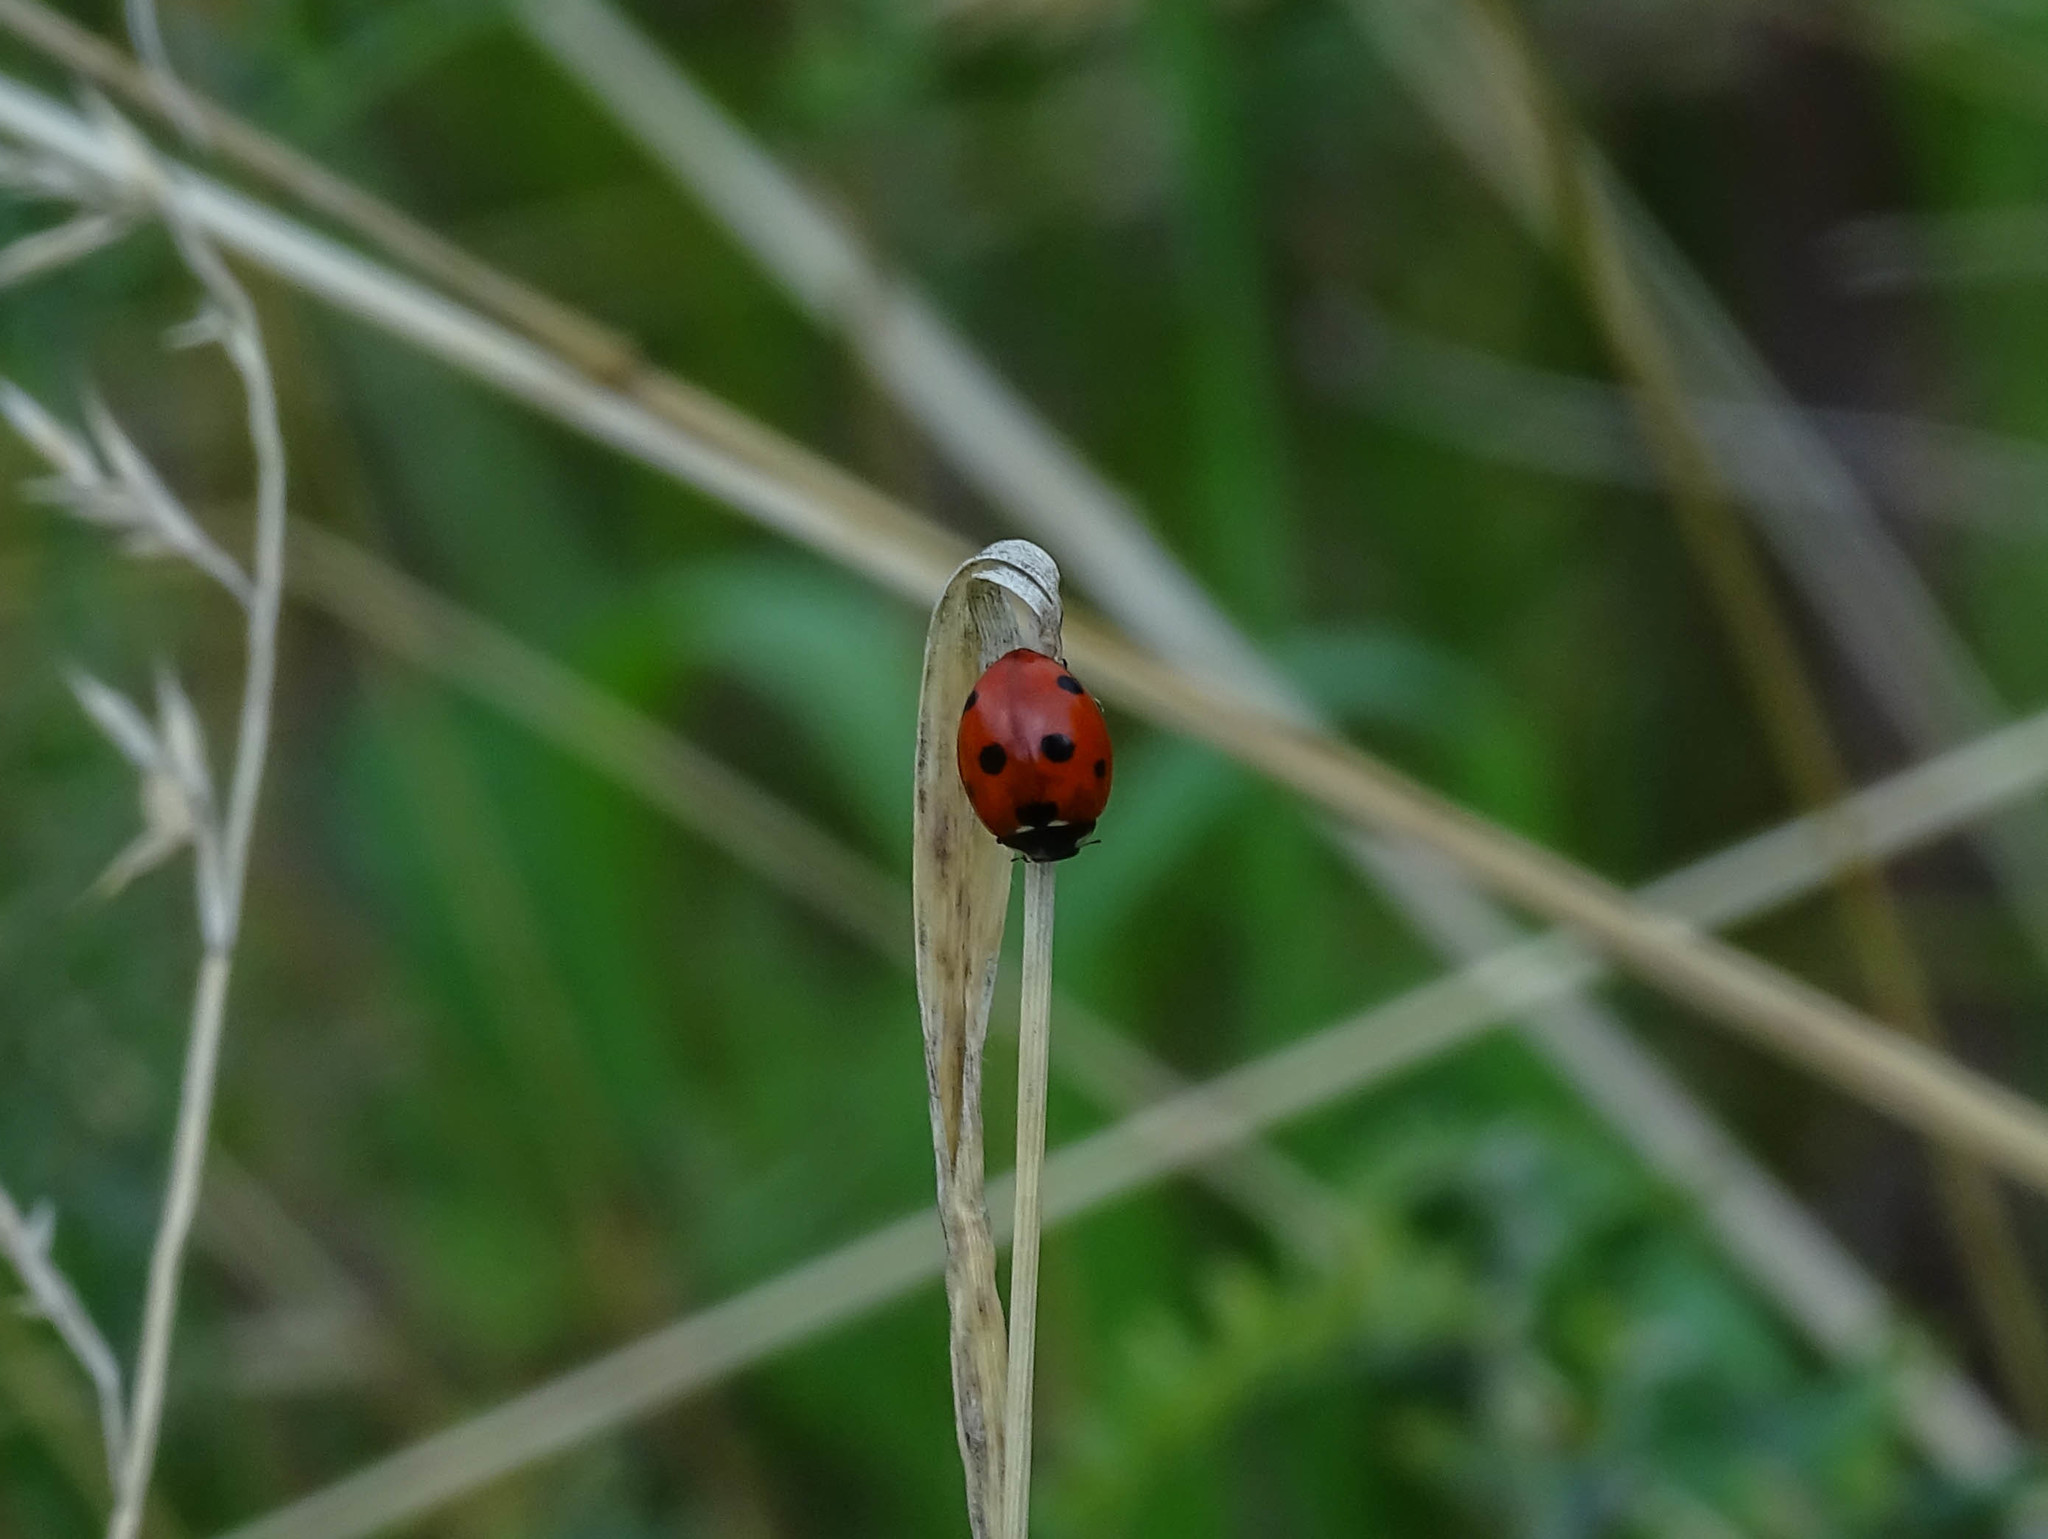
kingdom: Animalia
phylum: Arthropoda
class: Insecta
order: Coleoptera
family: Coccinellidae
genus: Coccinella
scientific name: Coccinella septempunctata
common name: Sevenspotted lady beetle
